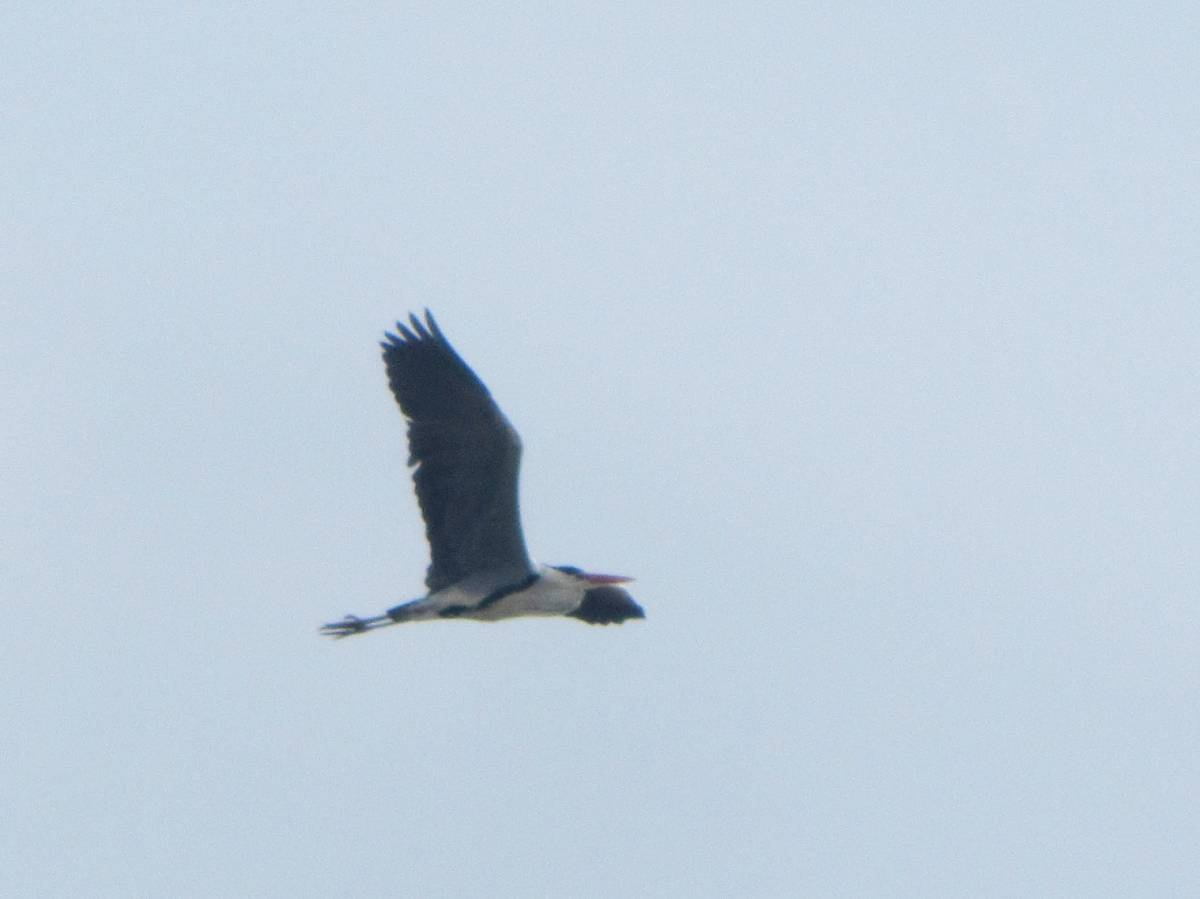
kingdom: Animalia
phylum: Chordata
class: Aves
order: Pelecaniformes
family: Ardeidae
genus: Ardea
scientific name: Ardea cinerea
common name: Grey heron
